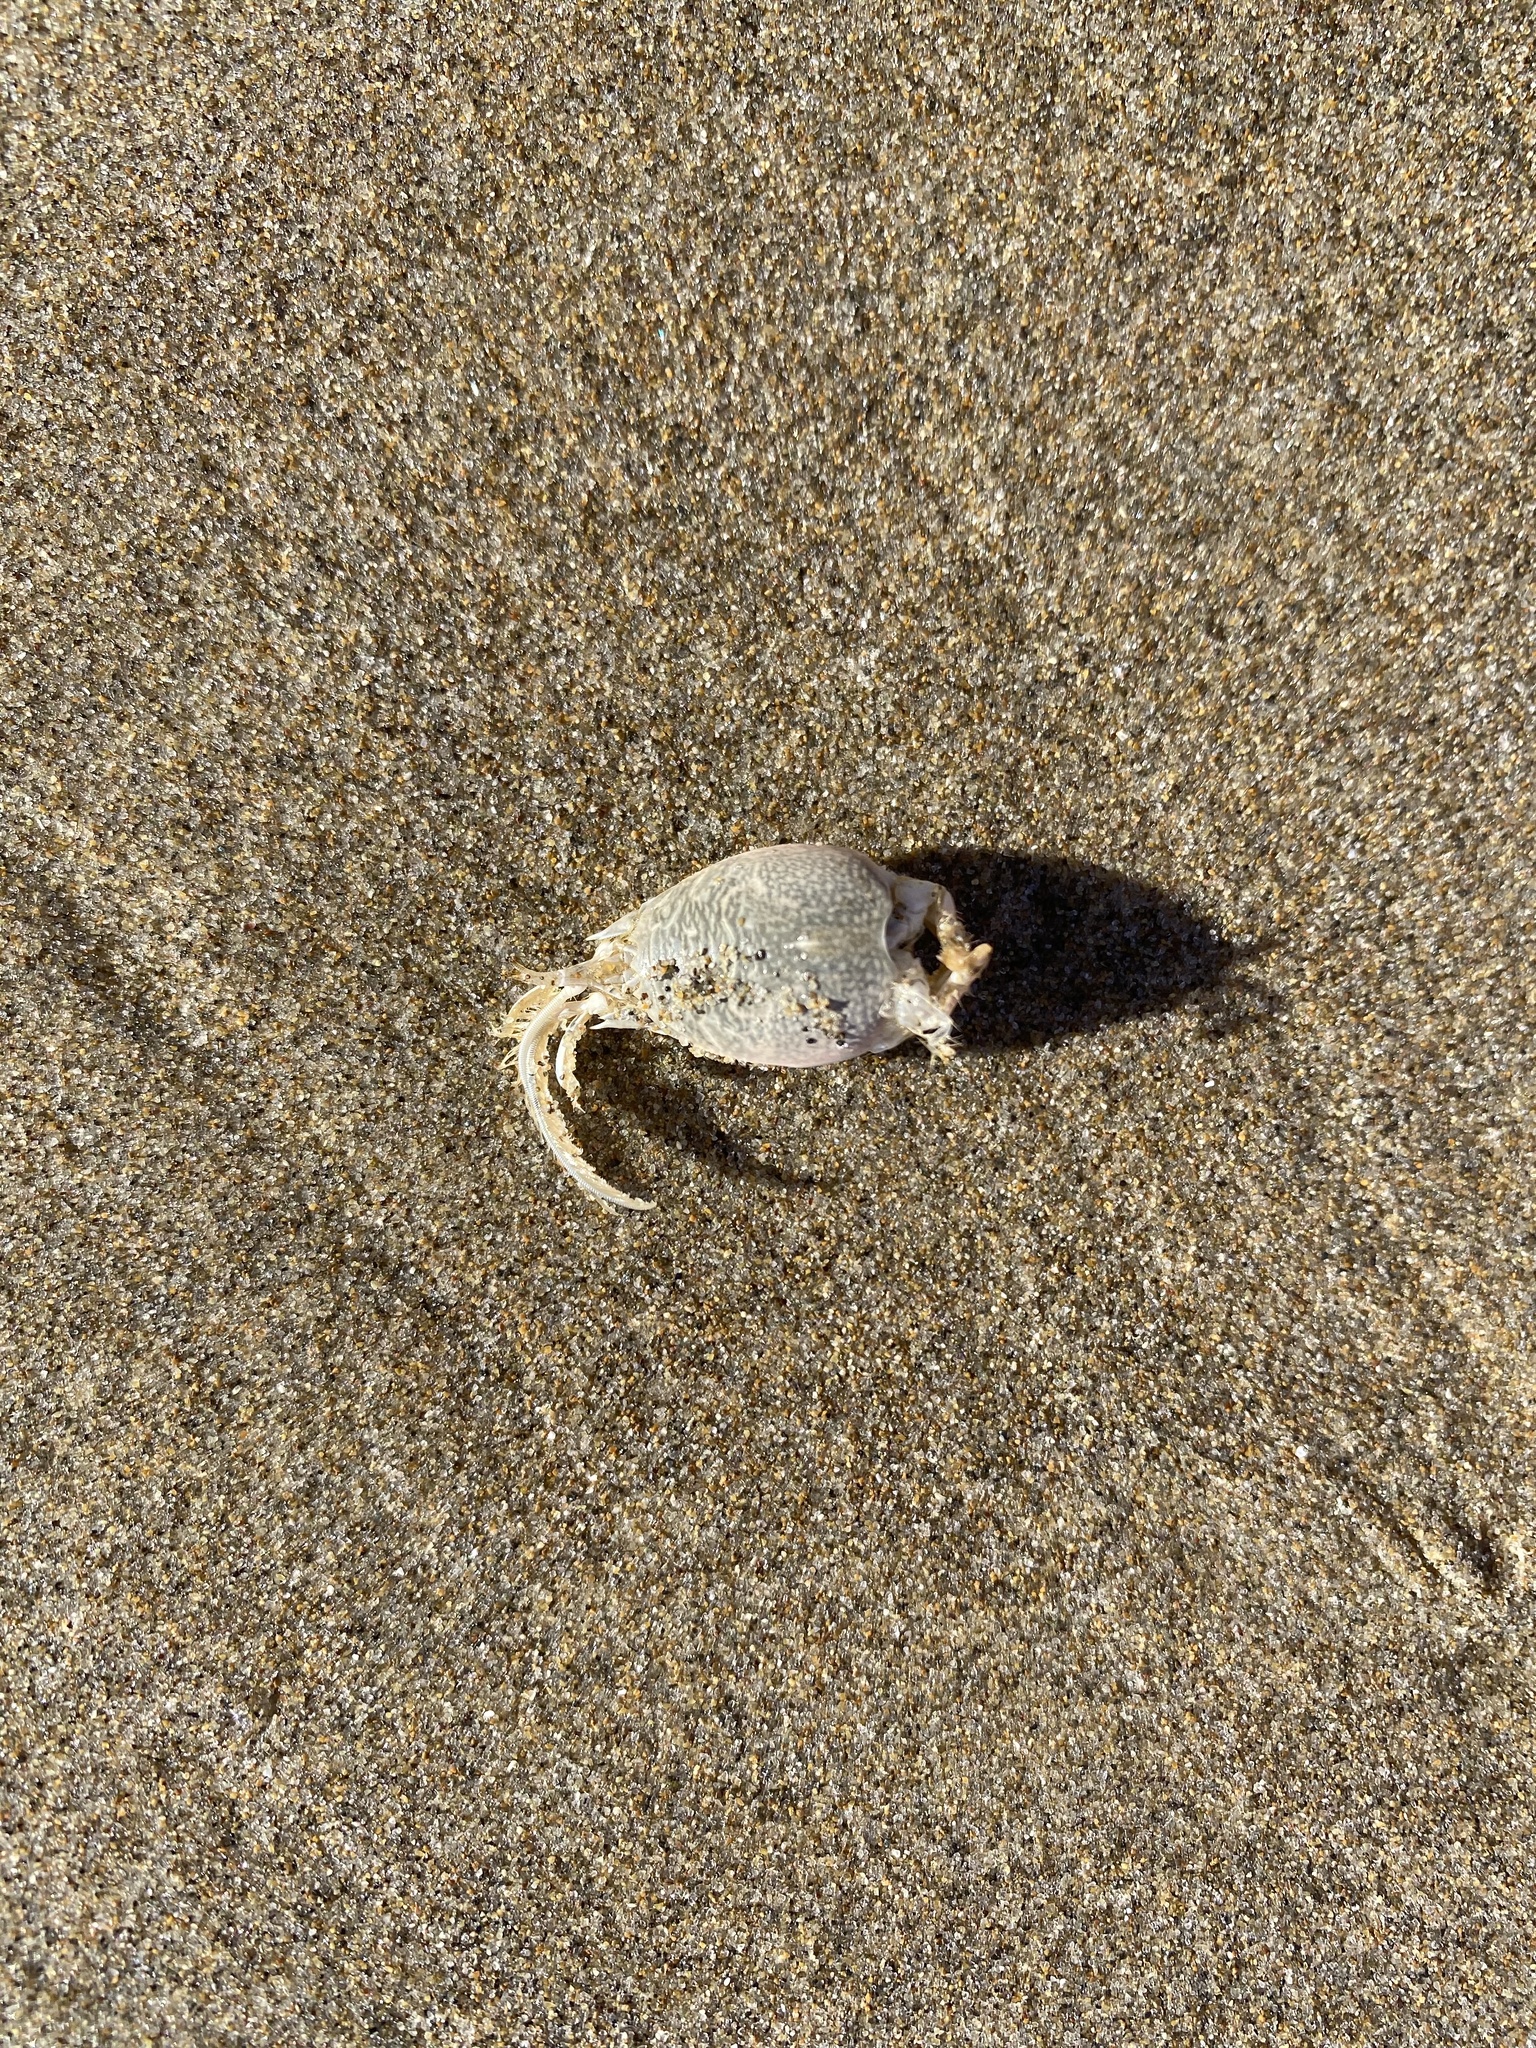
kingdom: Animalia
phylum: Arthropoda
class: Malacostraca
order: Decapoda
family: Hippidae
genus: Emerita
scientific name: Emerita analoga
